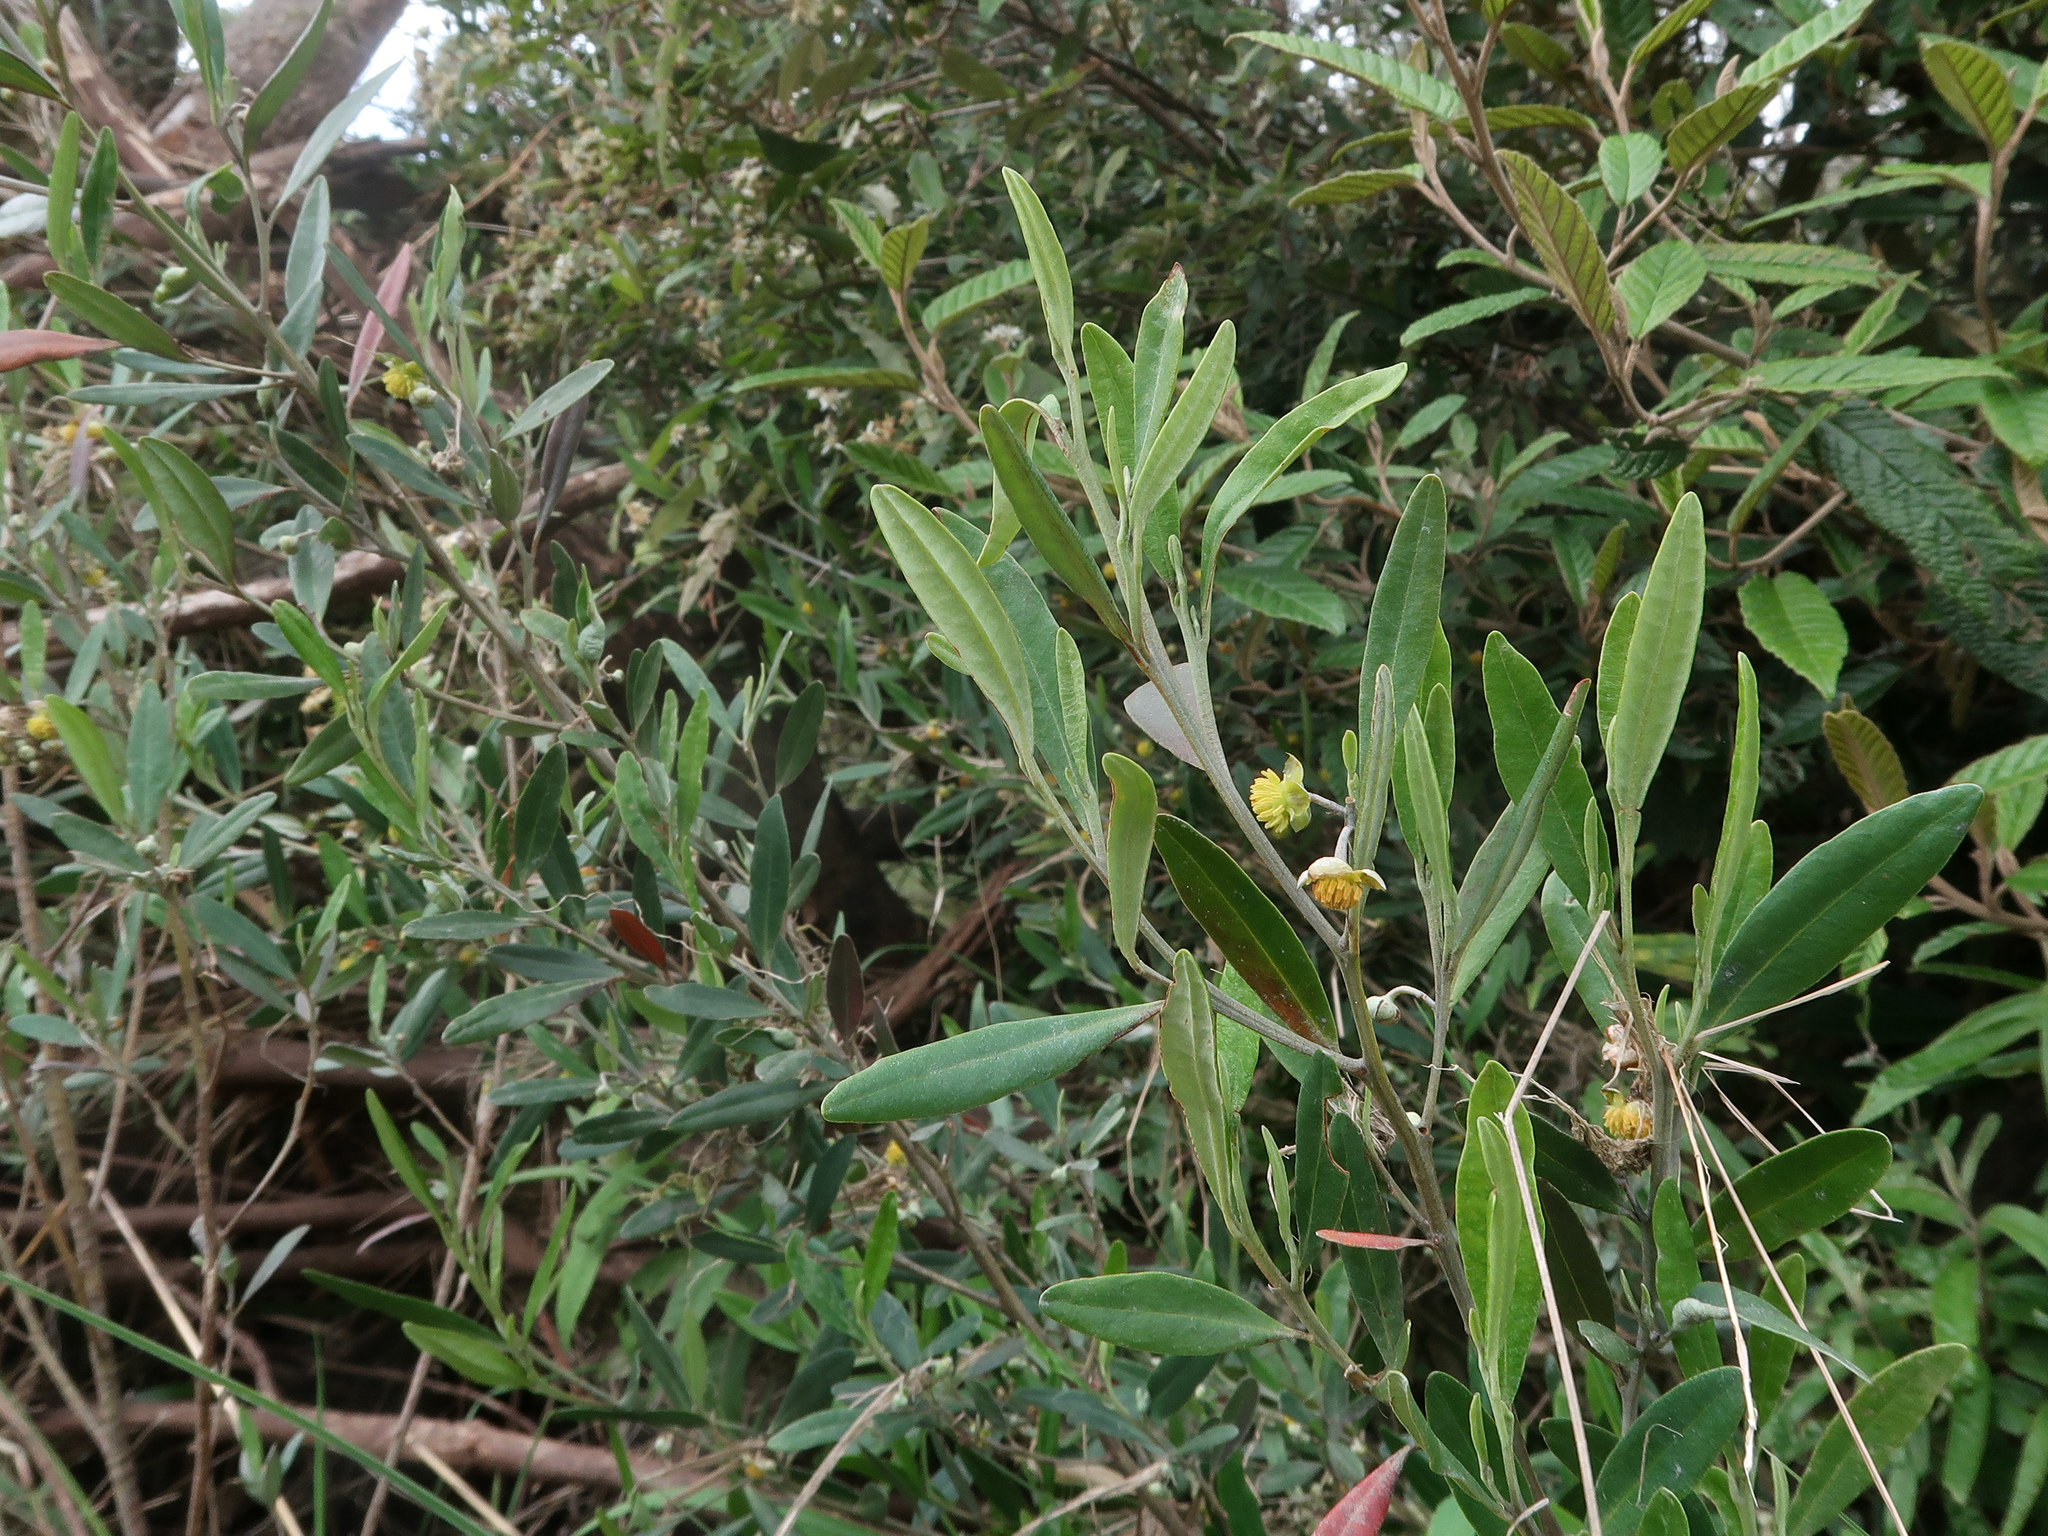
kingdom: Plantae
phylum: Tracheophyta
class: Magnoliopsida
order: Malpighiales
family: Euphorbiaceae
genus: Beyeria
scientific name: Beyeria viscosa
